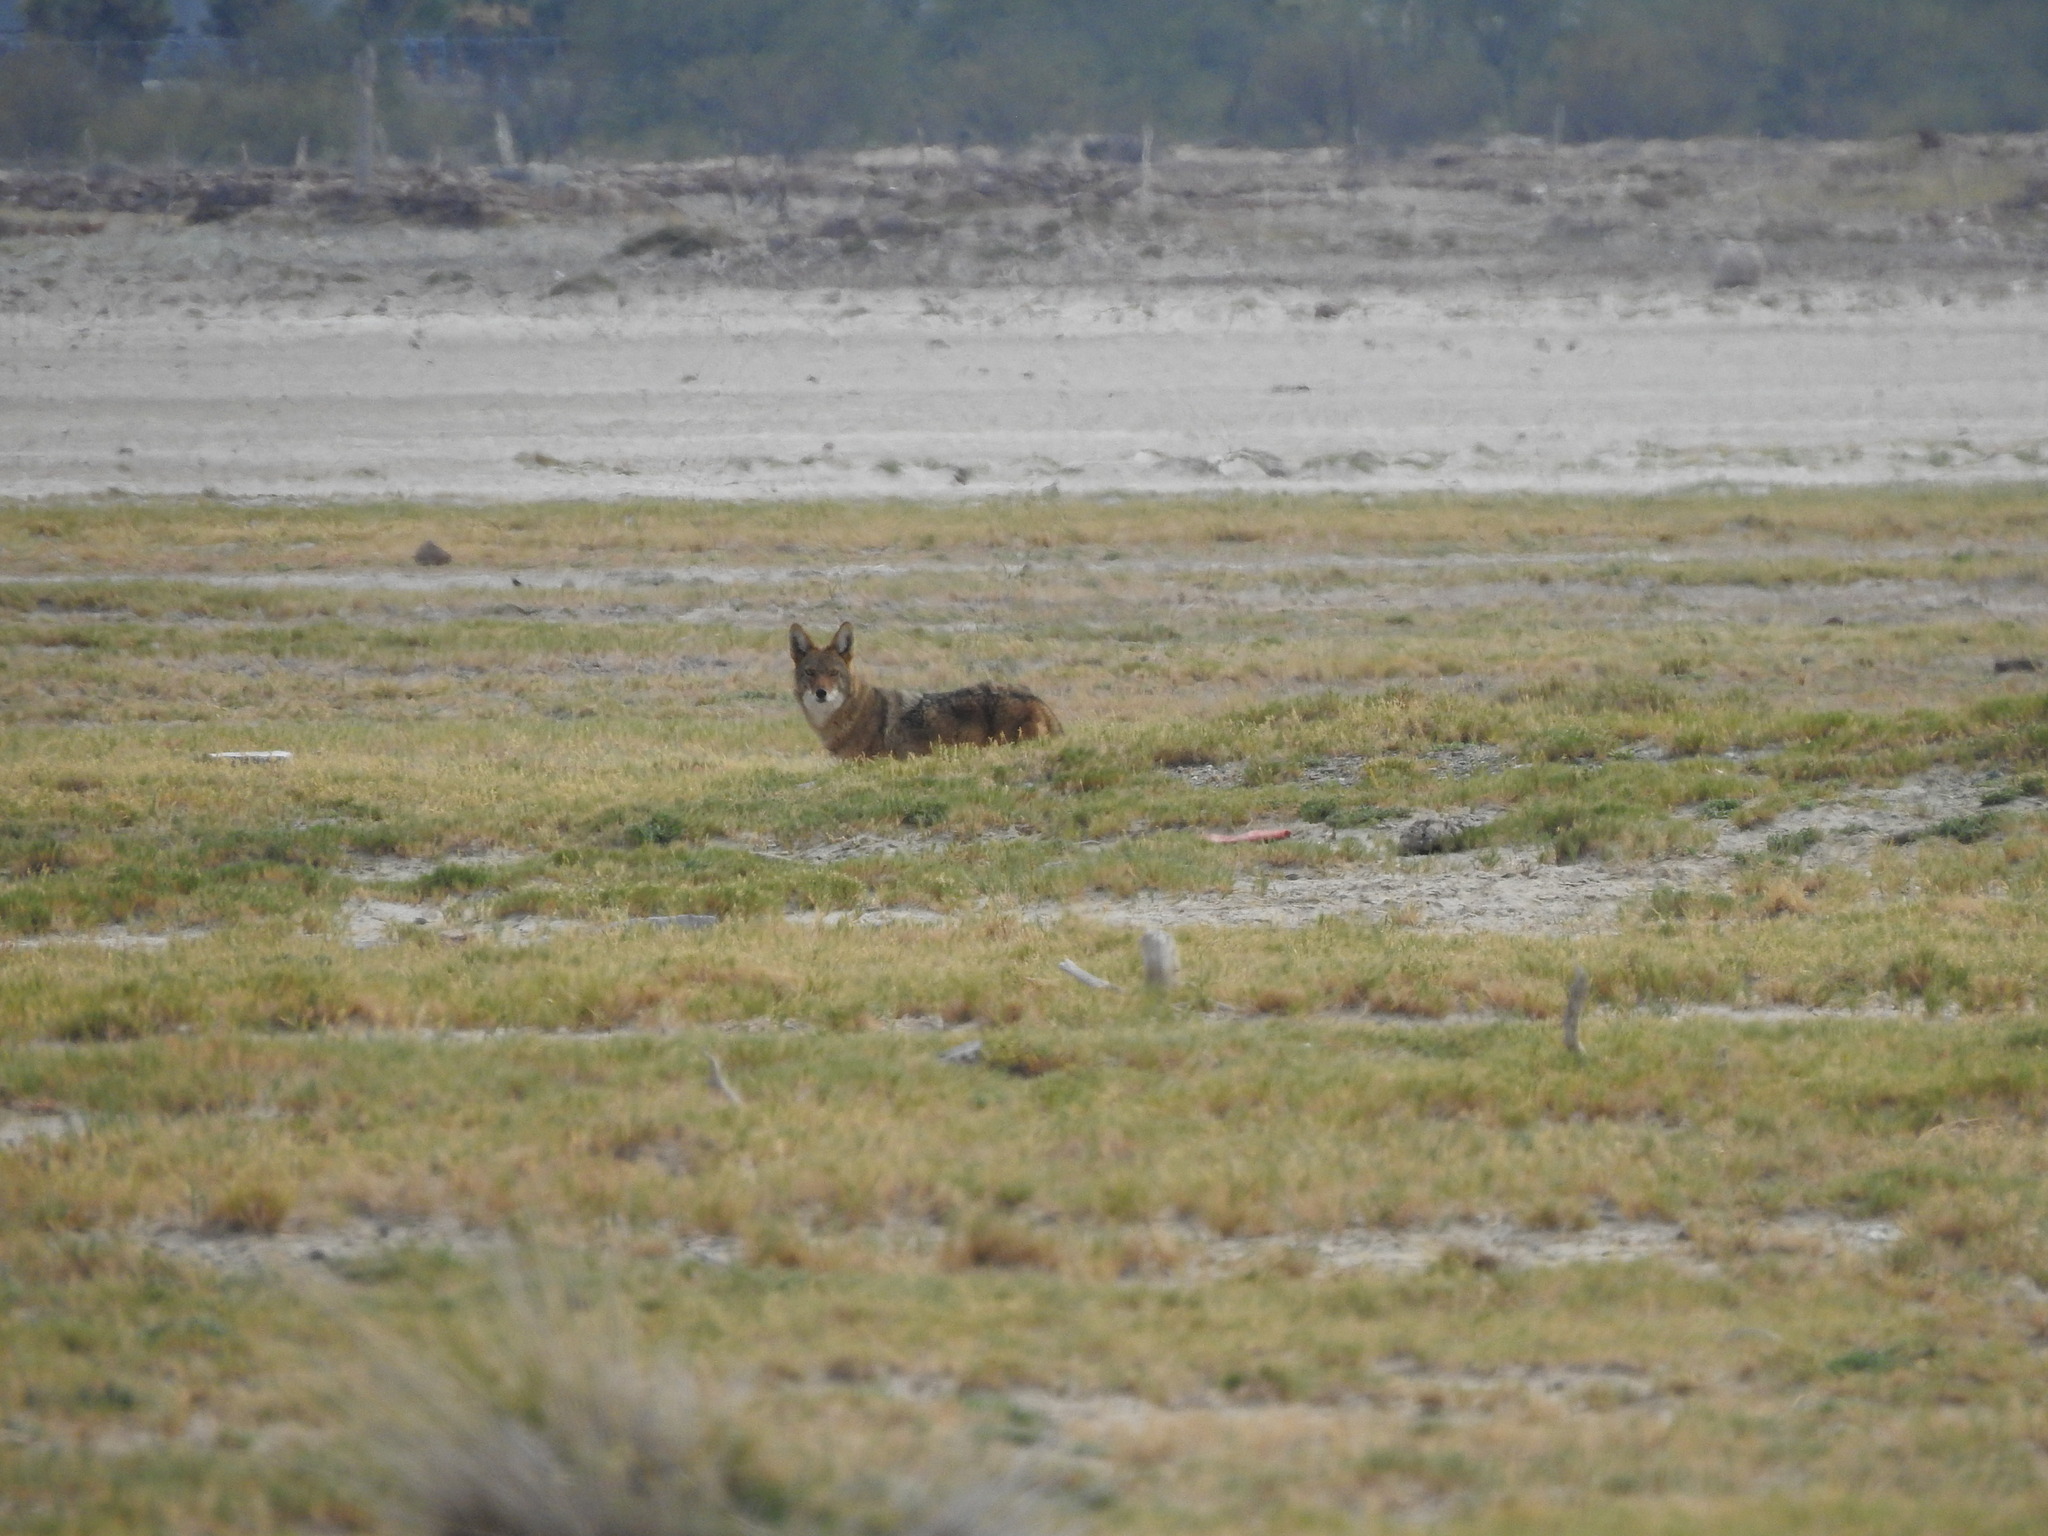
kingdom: Animalia
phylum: Chordata
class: Mammalia
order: Carnivora
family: Canidae
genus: Canis
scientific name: Canis latrans
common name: Coyote
